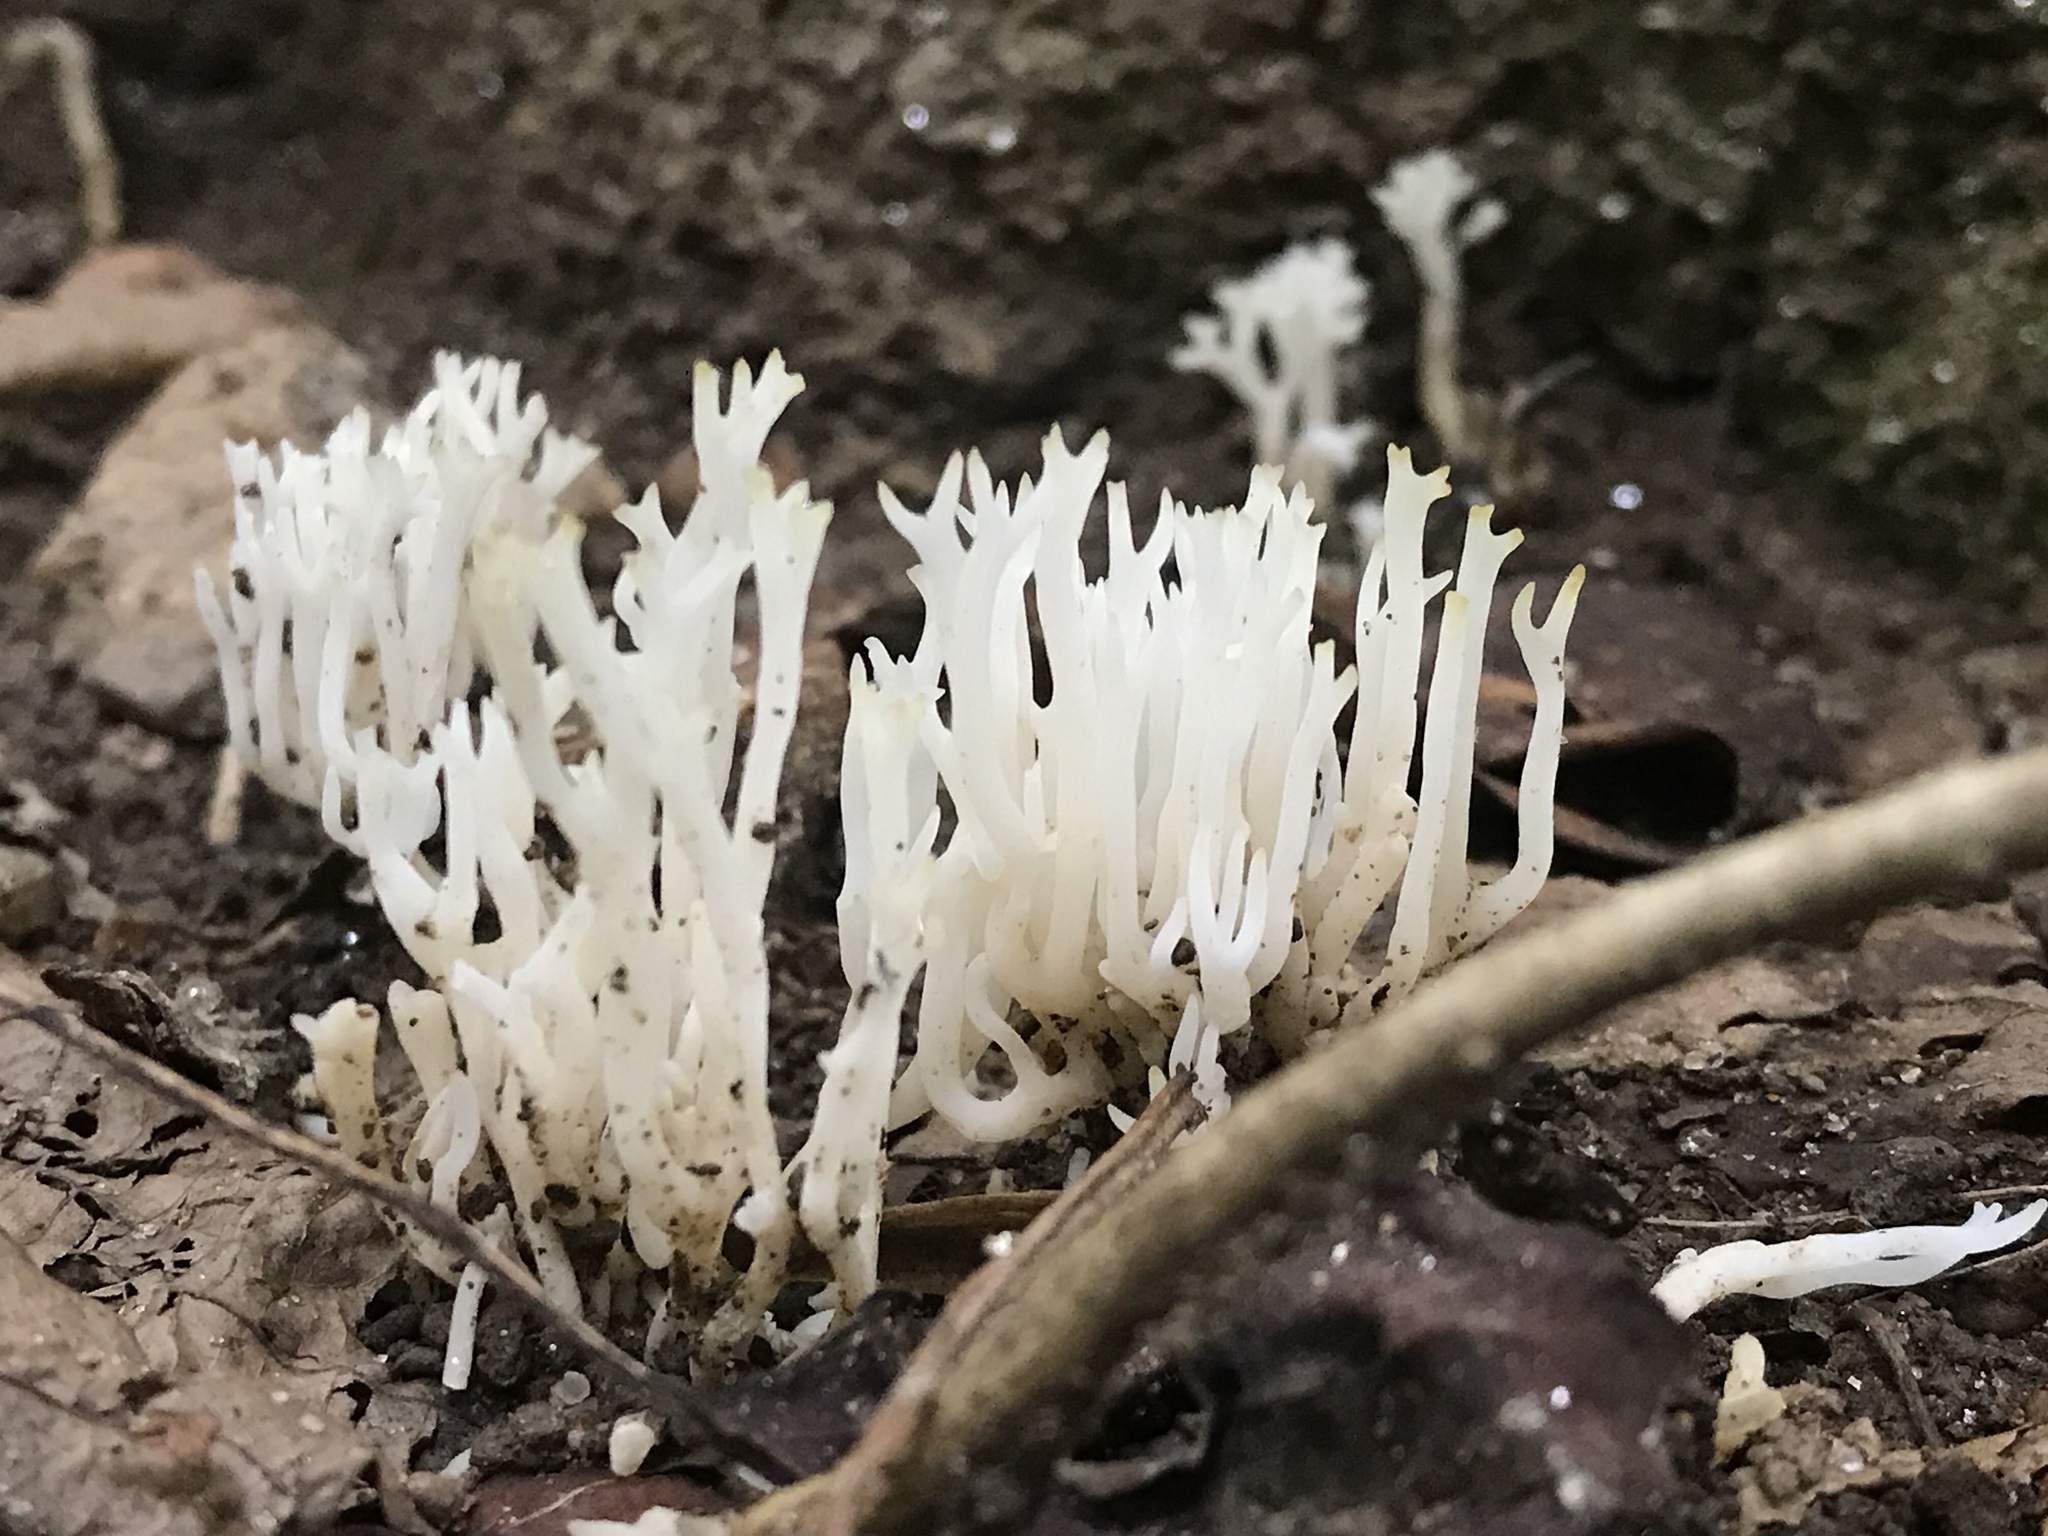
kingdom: Fungi
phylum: Basidiomycota
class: Agaricomycetes
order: Cantharellales
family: Hydnaceae
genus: Clavulina
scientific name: Clavulina coralloides
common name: Crested coral
